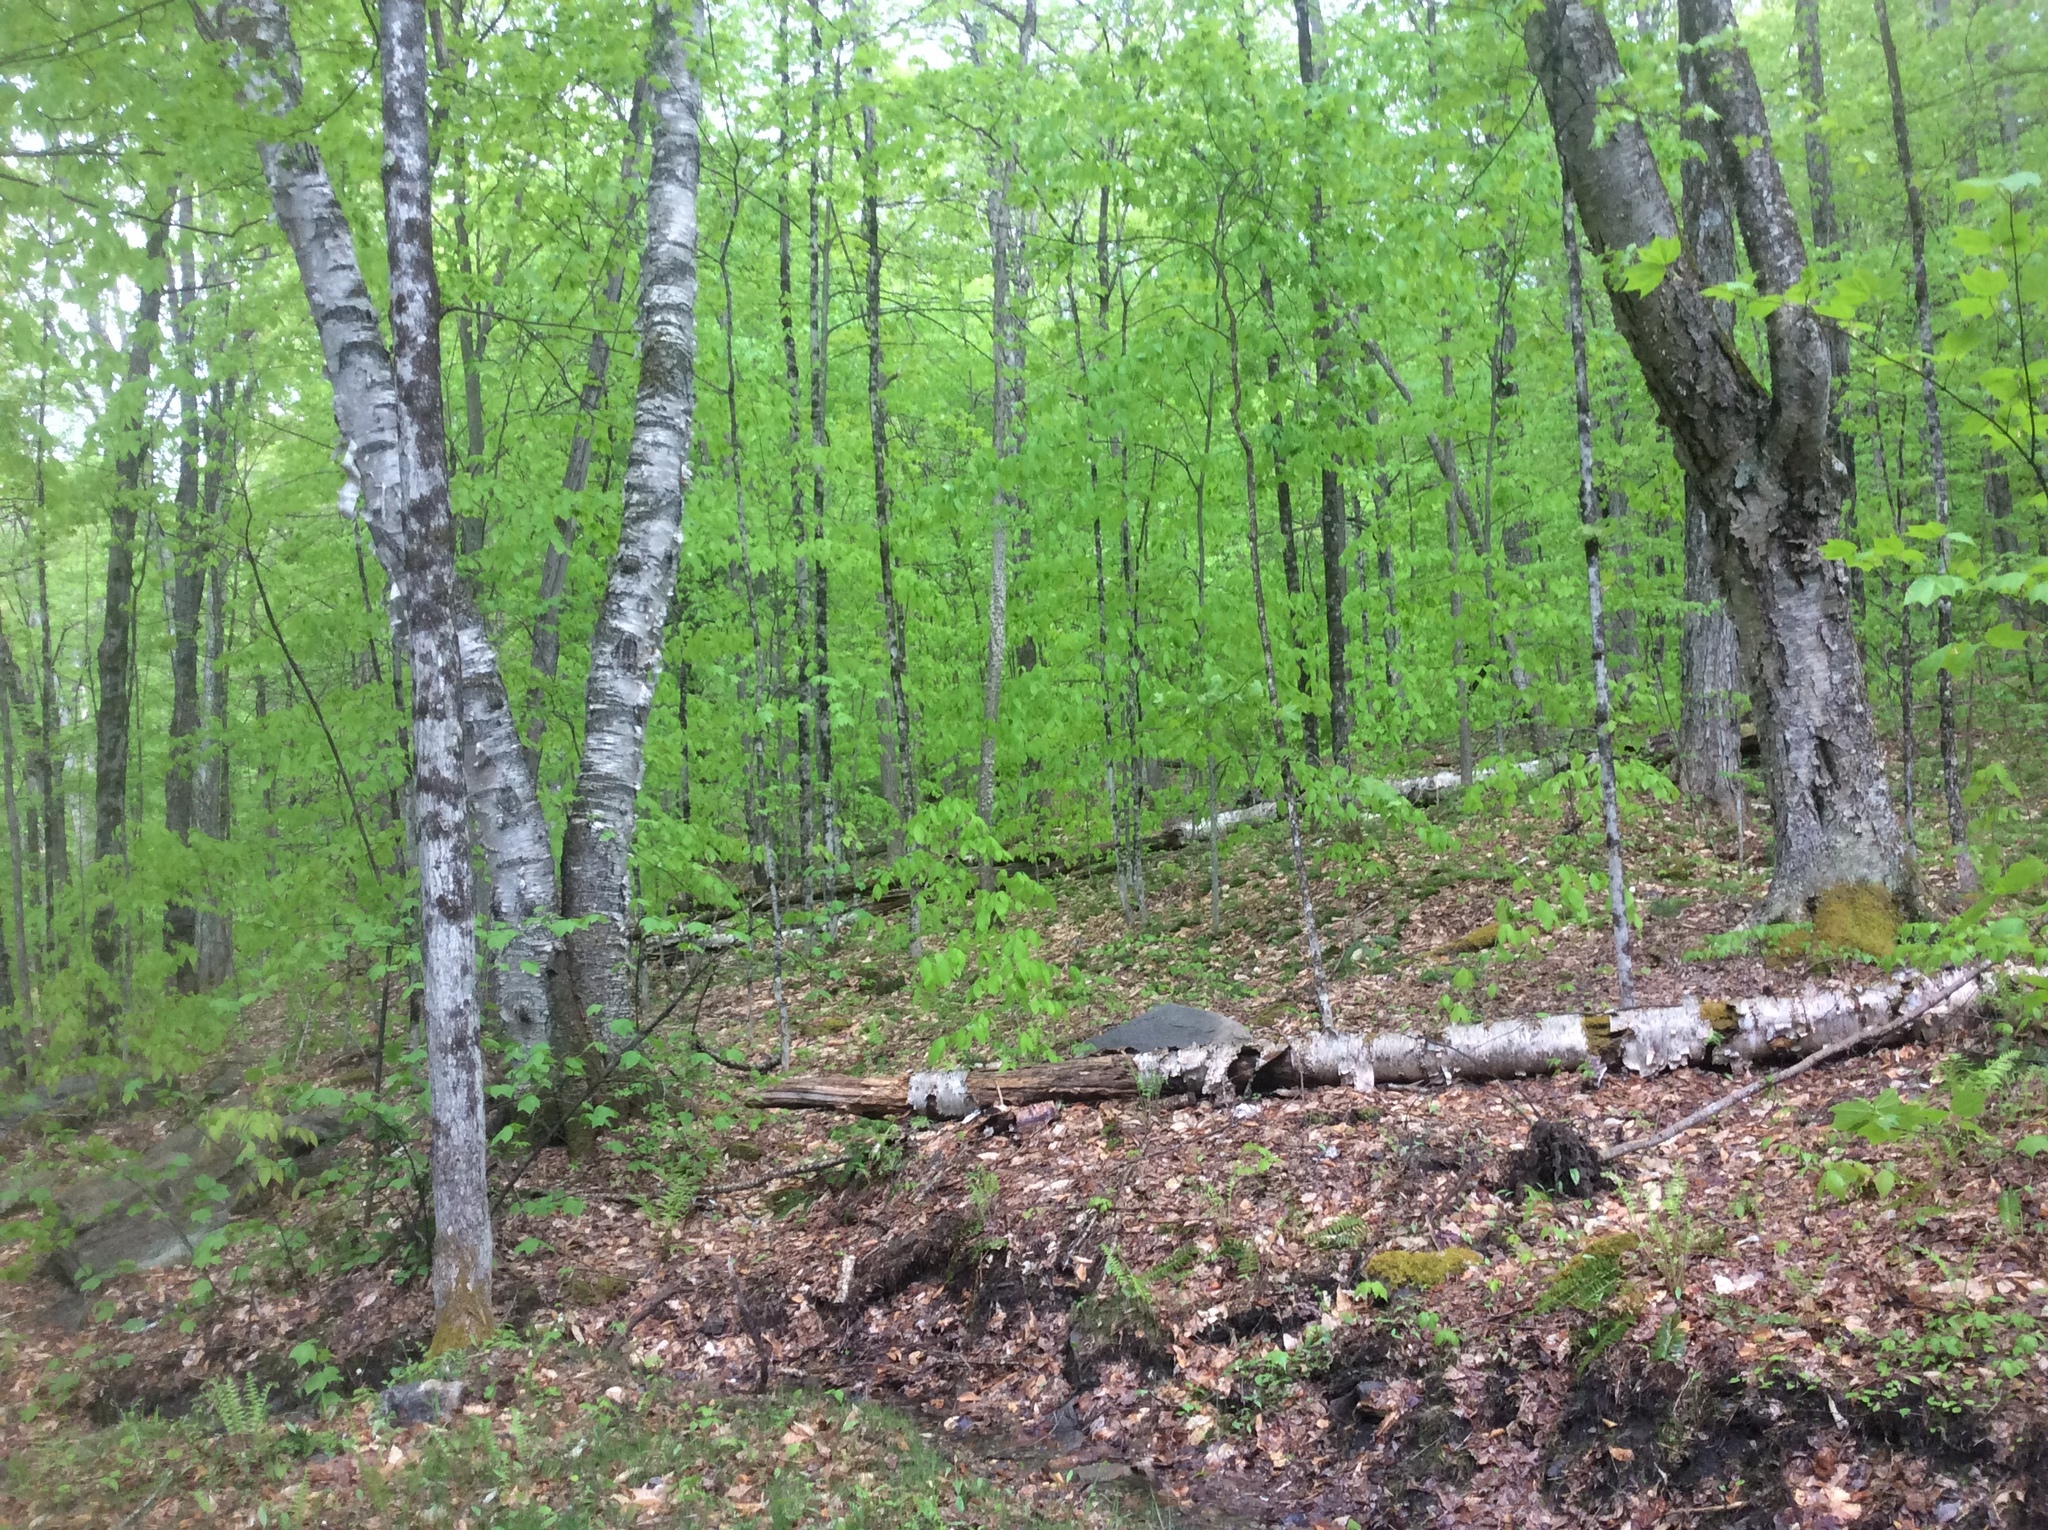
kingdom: Plantae
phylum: Tracheophyta
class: Magnoliopsida
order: Fagales
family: Betulaceae
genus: Betula
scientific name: Betula papyrifera
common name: Paper birch
